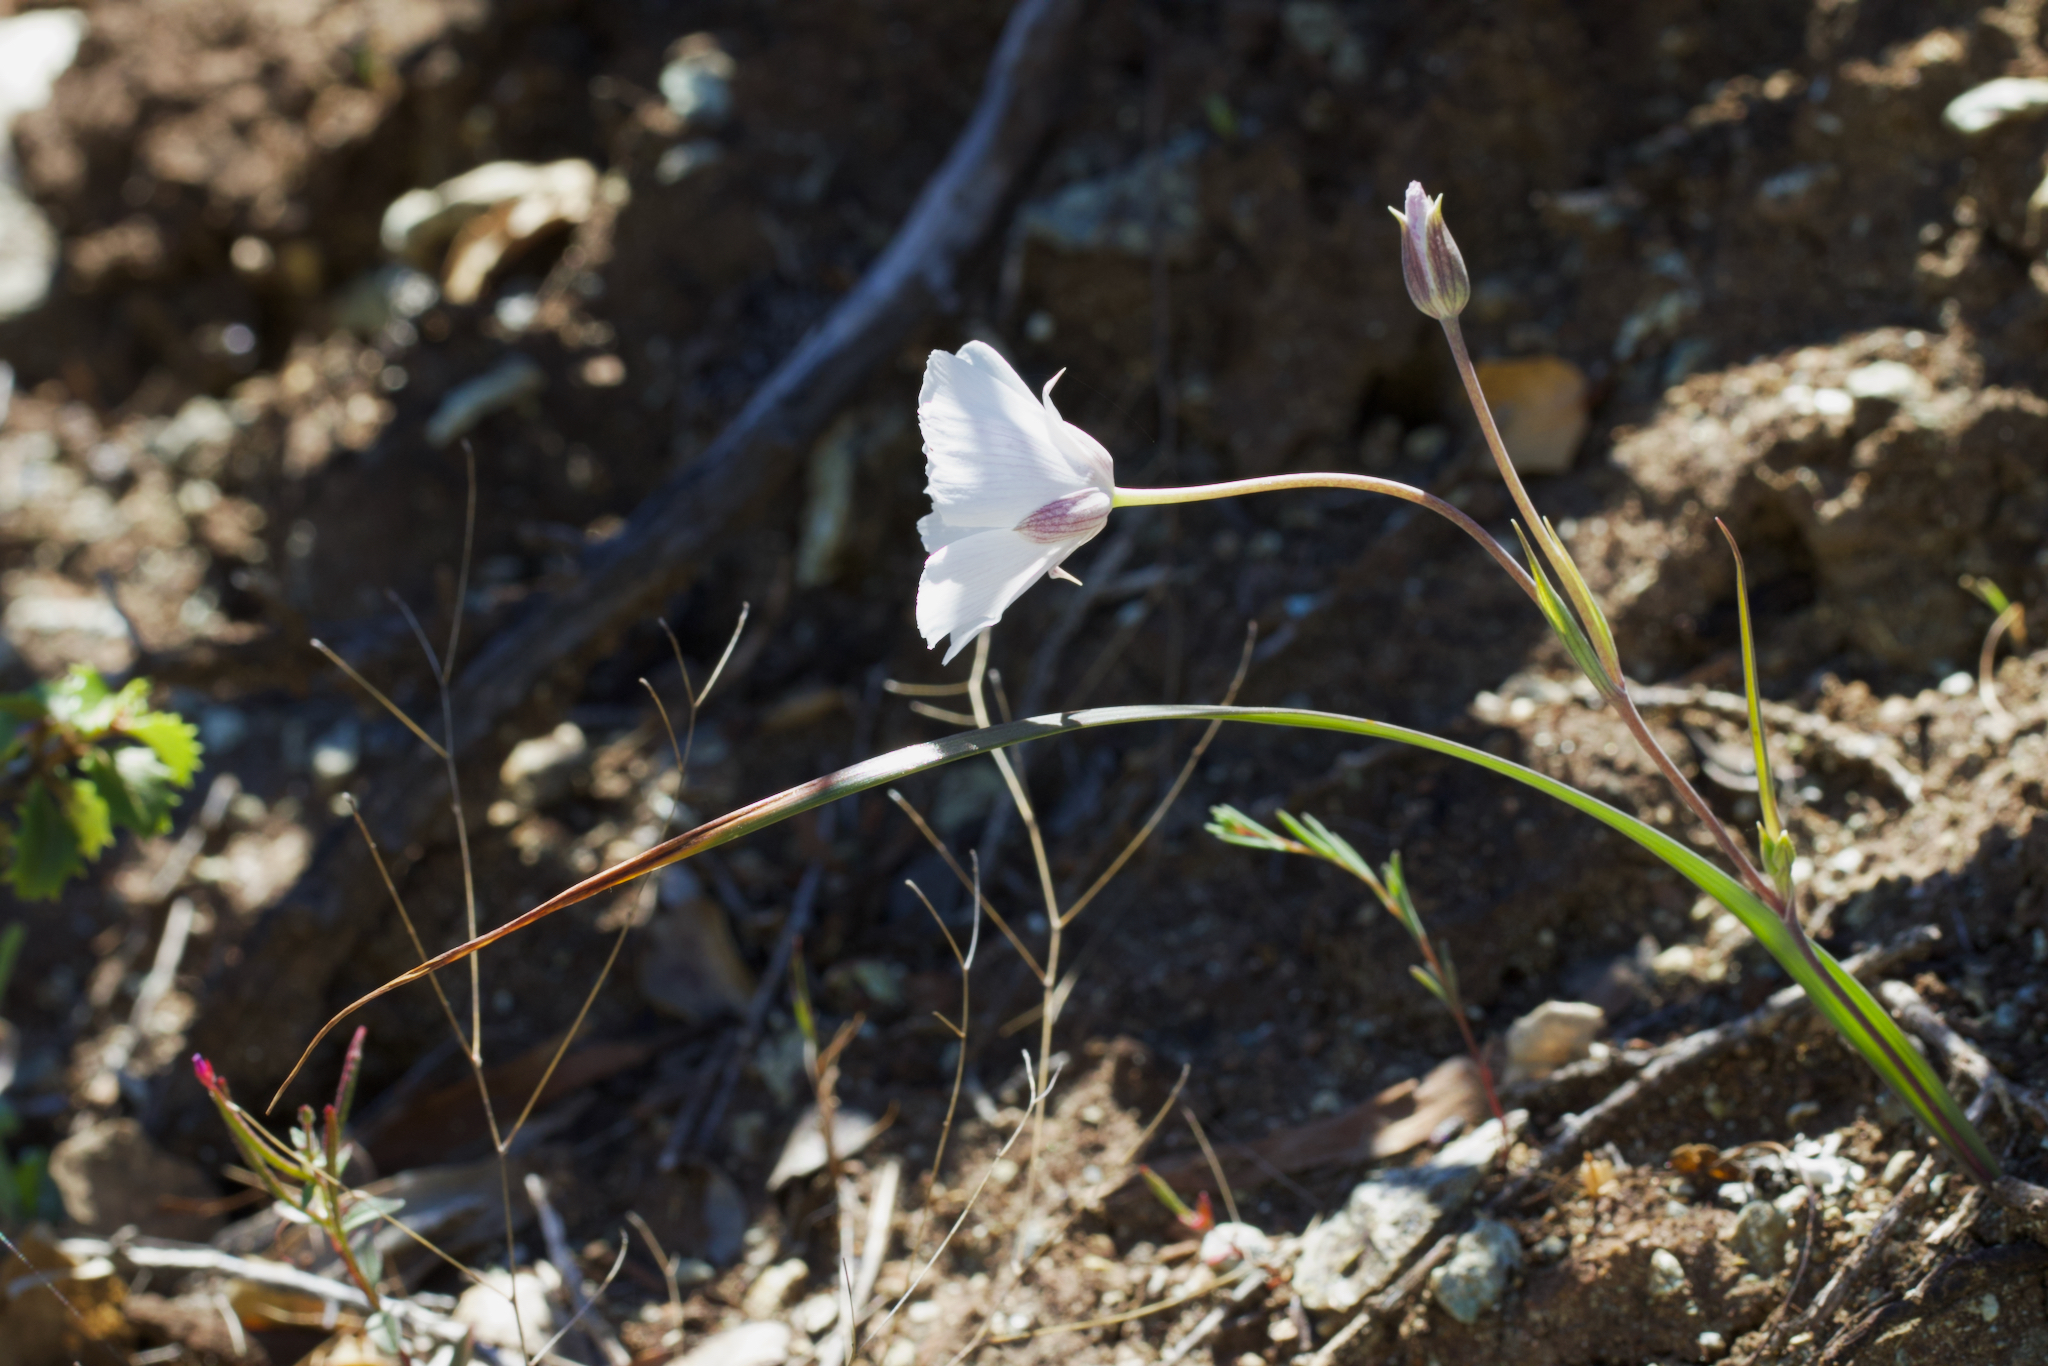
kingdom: Plantae
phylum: Tracheophyta
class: Liliopsida
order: Liliales
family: Liliaceae
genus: Calochortus
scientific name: Calochortus umbellatus
